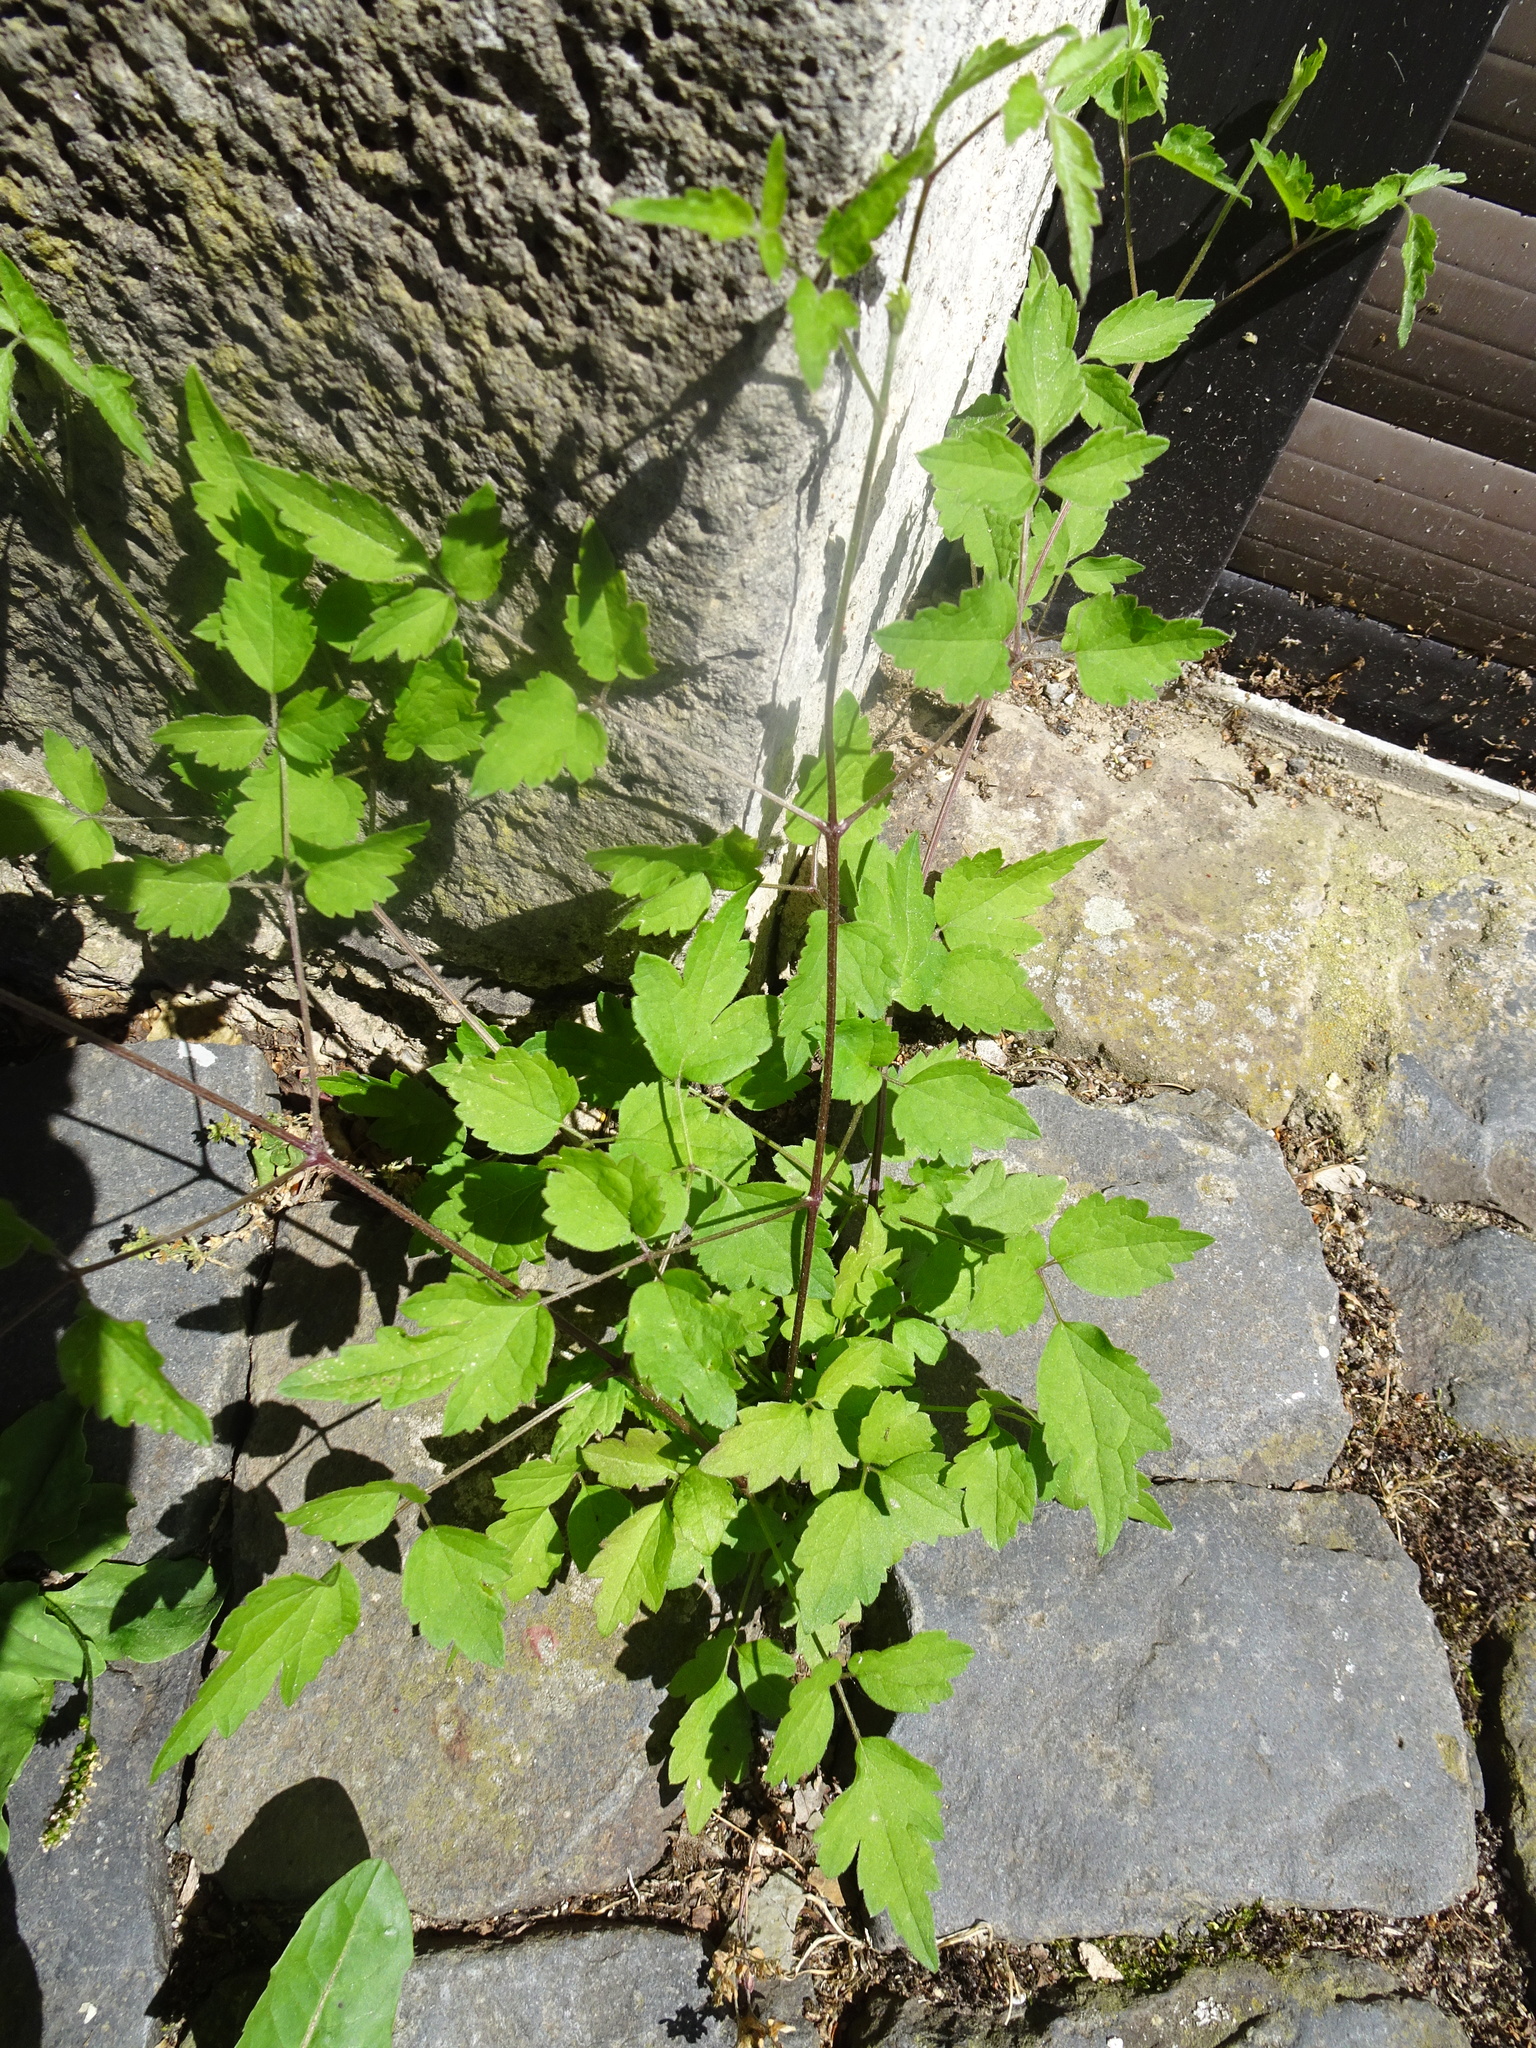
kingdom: Plantae
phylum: Tracheophyta
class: Magnoliopsida
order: Ranunculales
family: Ranunculaceae
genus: Clematis
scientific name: Clematis vitalba
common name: Evergreen clematis
